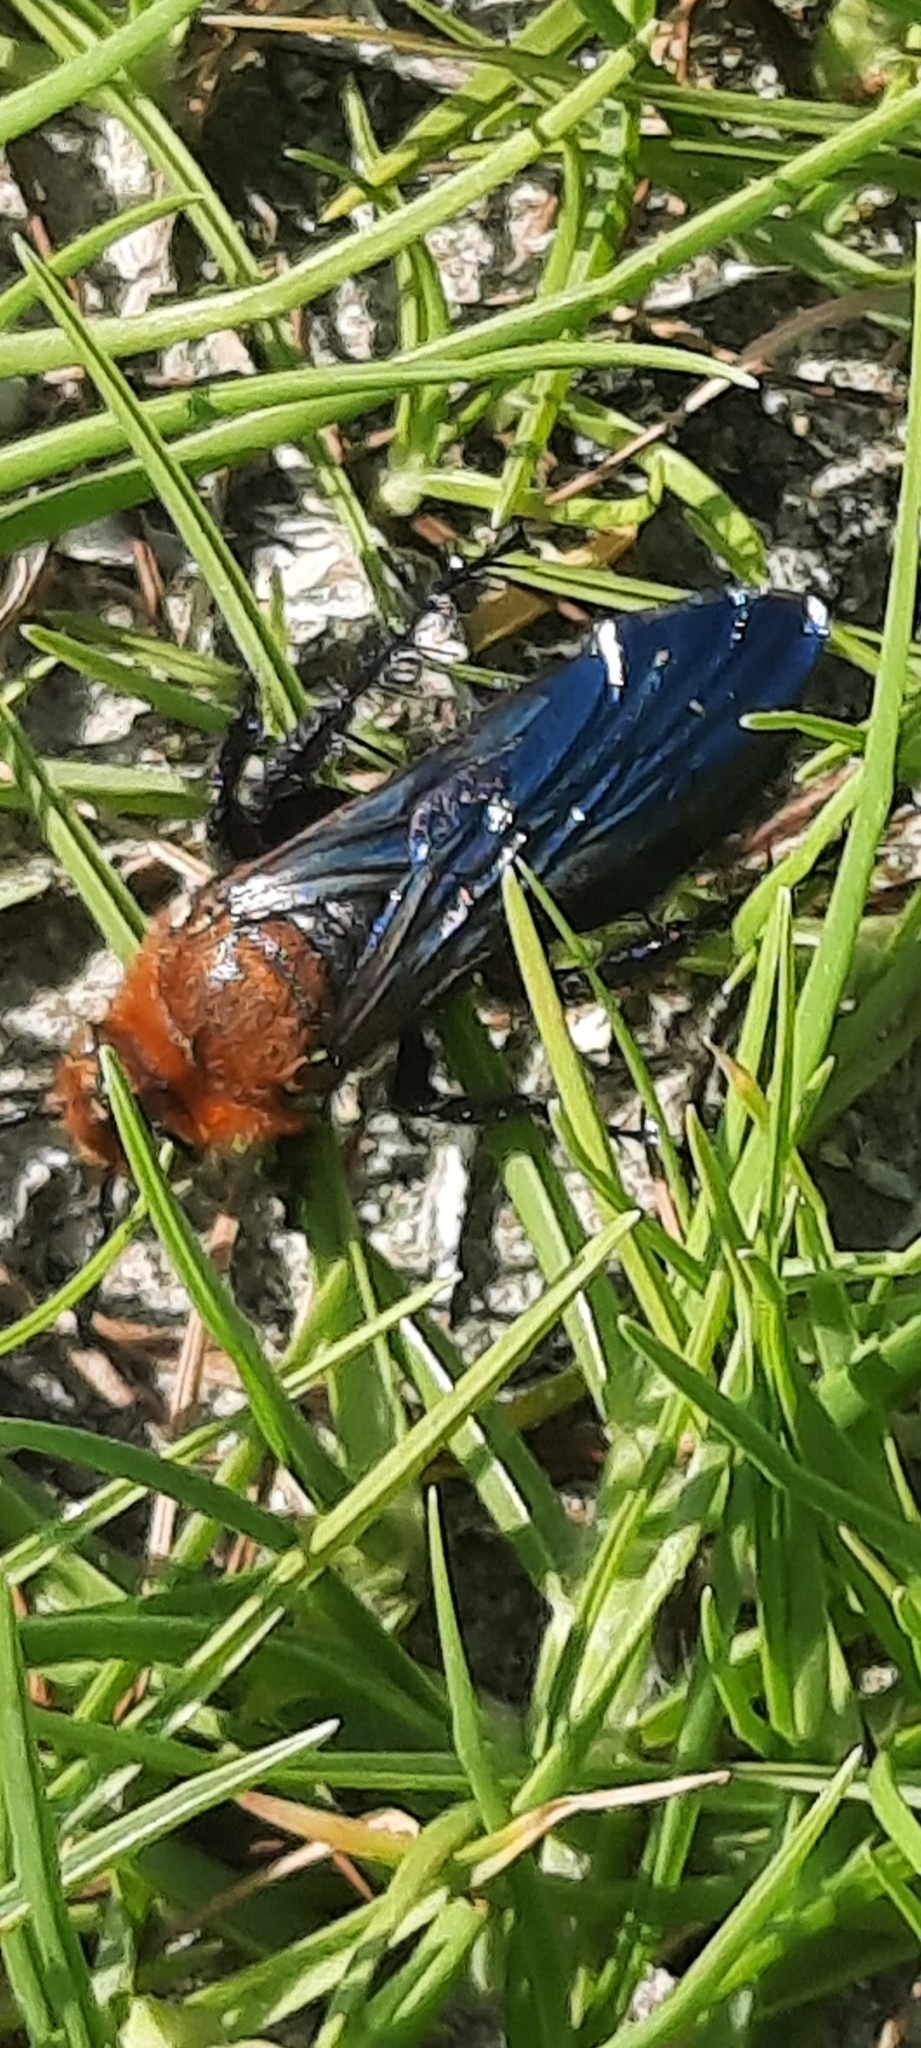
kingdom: Animalia
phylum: Arthropoda
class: Insecta
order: Hymenoptera
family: Scoliidae
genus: Campsomeriella
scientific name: Campsomeriella thoracica
